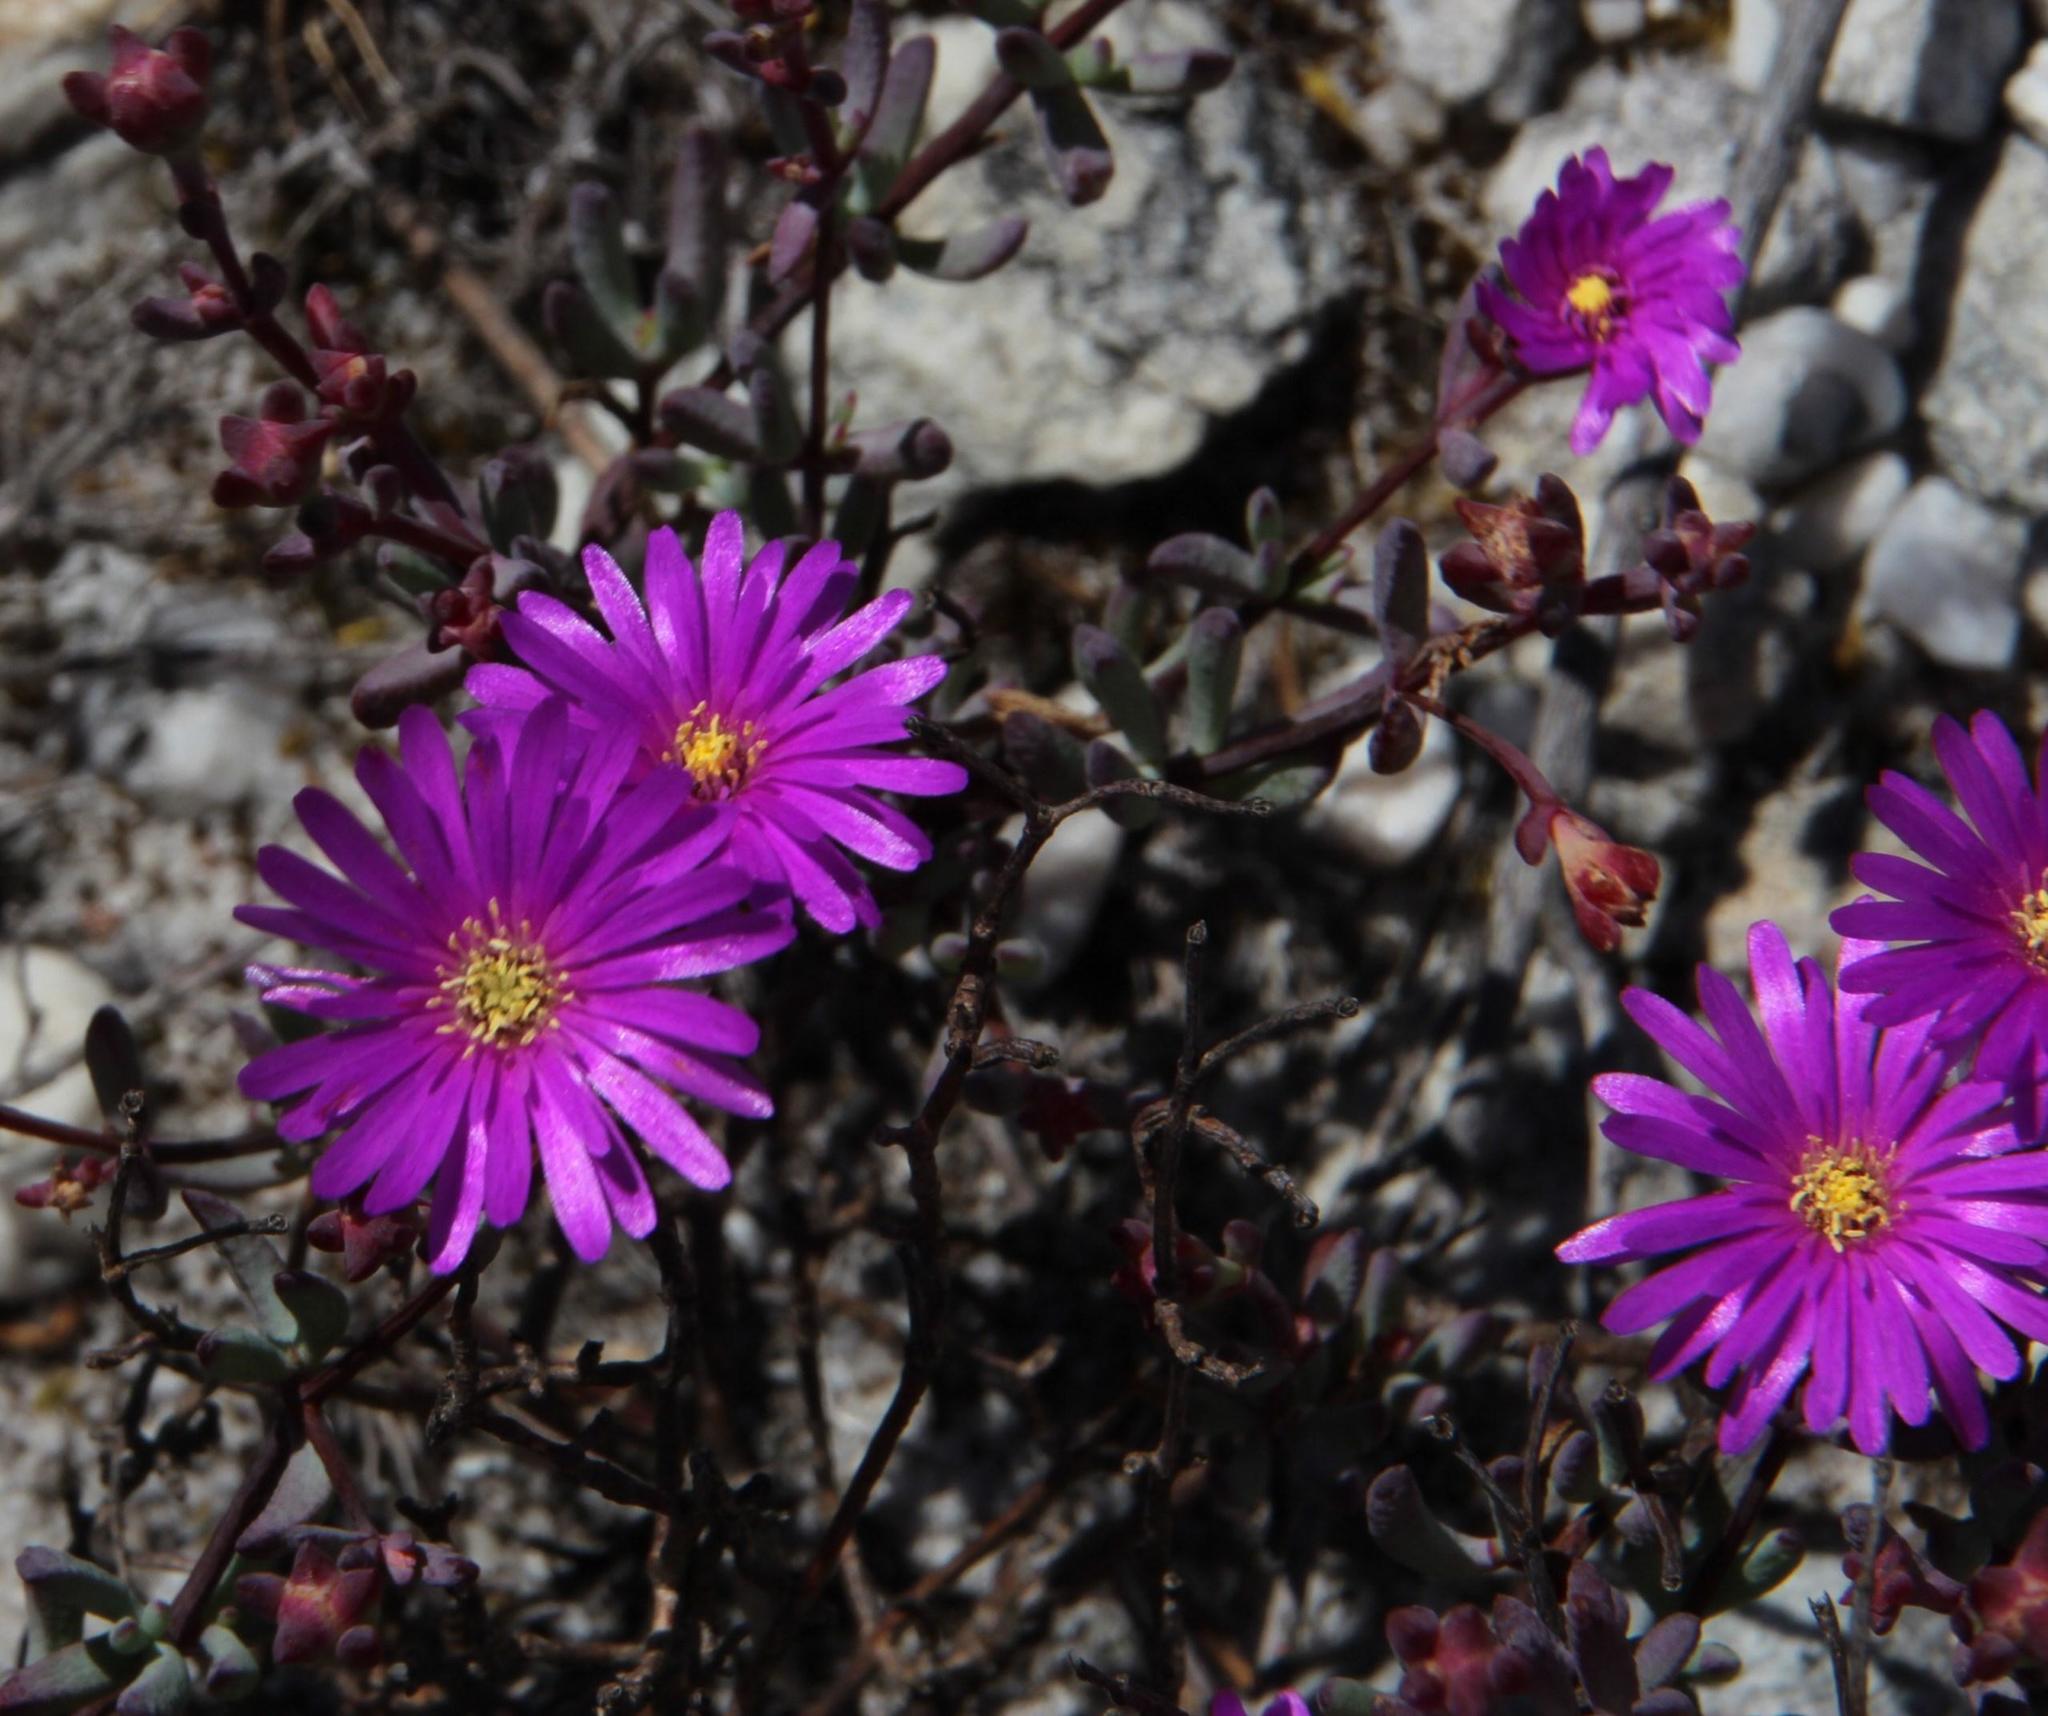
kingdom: Plantae
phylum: Tracheophyta
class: Magnoliopsida
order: Caryophyllales
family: Aizoaceae
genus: Lampranthus
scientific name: Lampranthus leptosepalus
